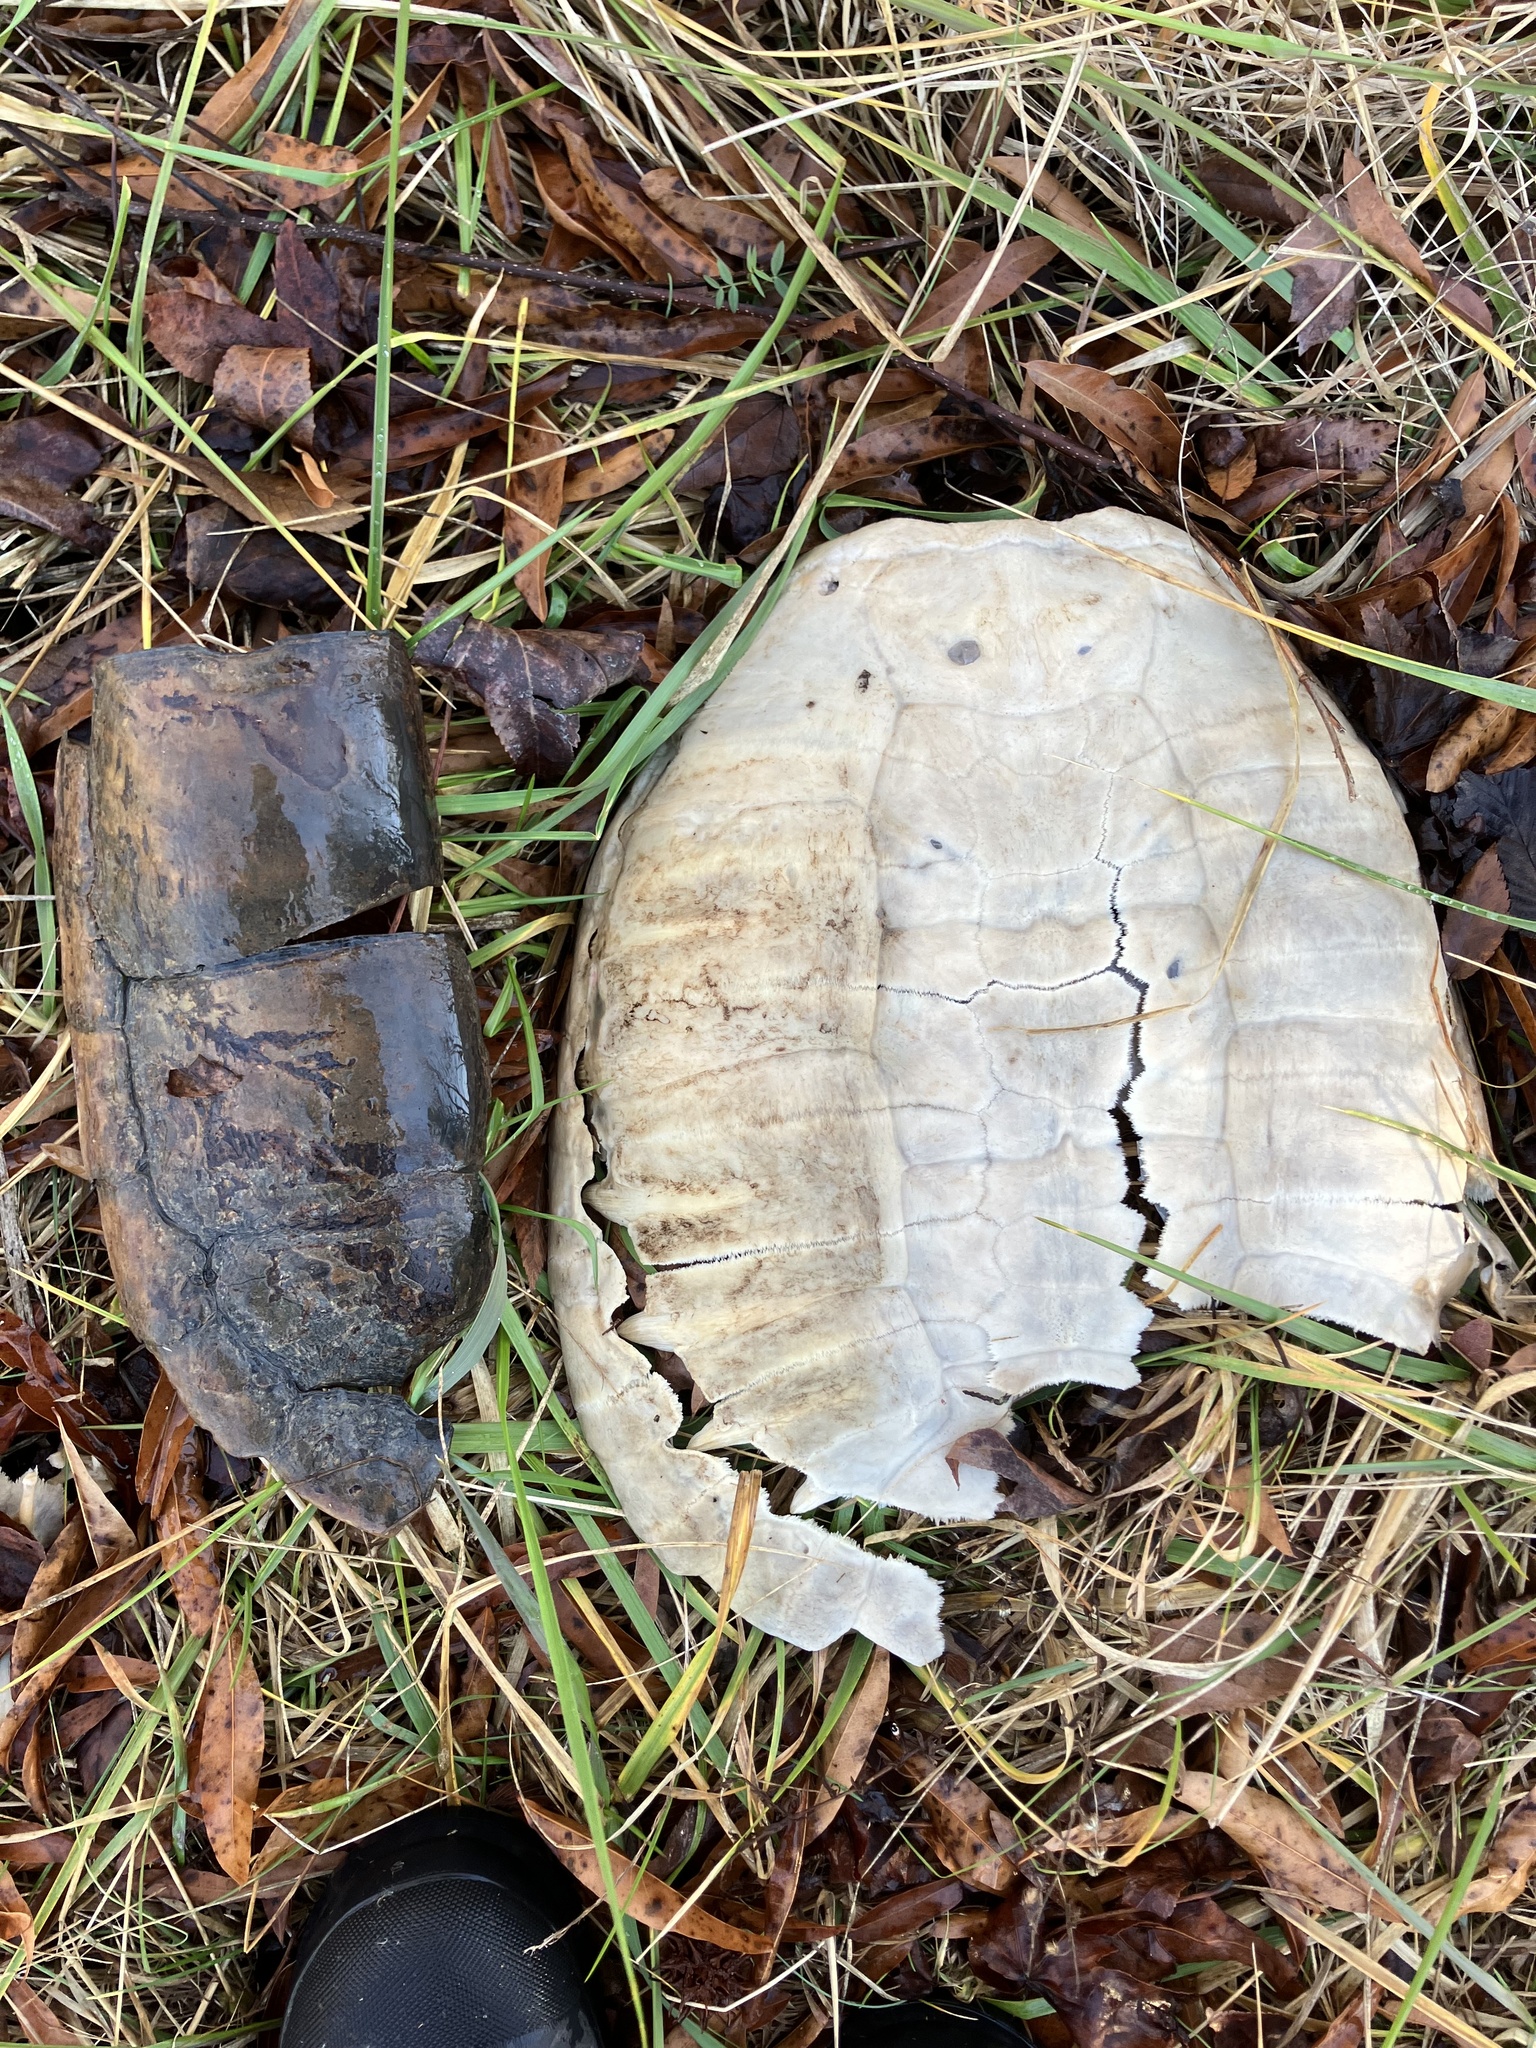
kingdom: Animalia
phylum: Chordata
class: Testudines
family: Chelydridae
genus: Chelydra
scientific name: Chelydra serpentina
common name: Common snapping turtle
